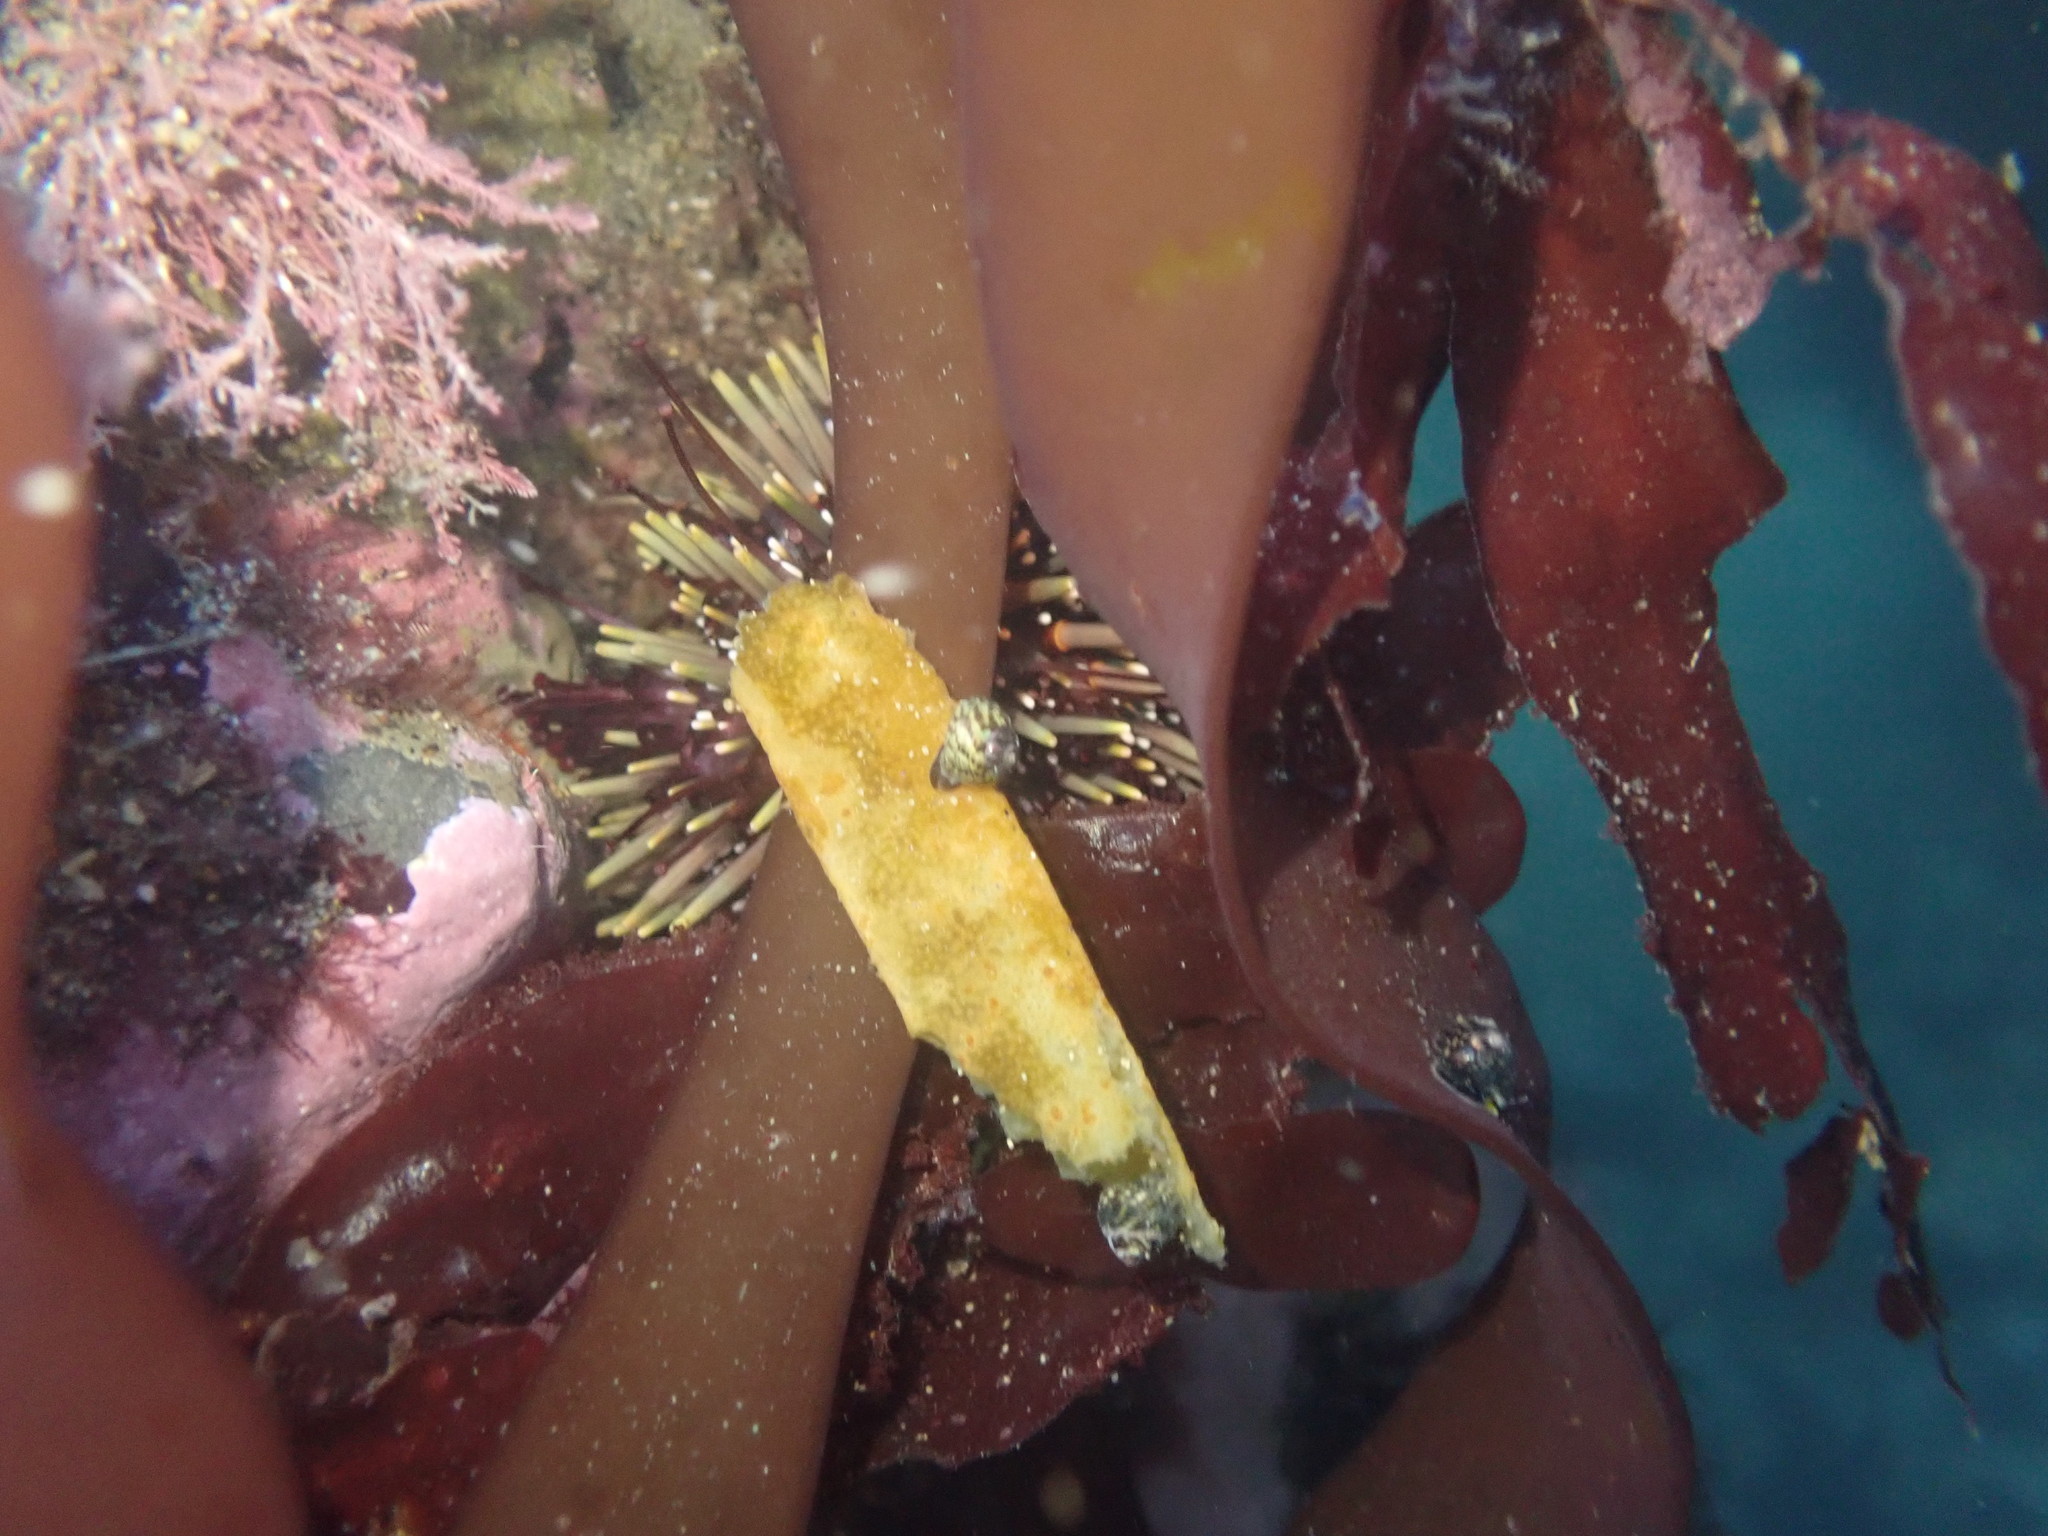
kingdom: Animalia
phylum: Echinodermata
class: Echinoidea
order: Camarodonta
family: Echinometridae
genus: Evechinus
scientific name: Evechinus chloroticus
